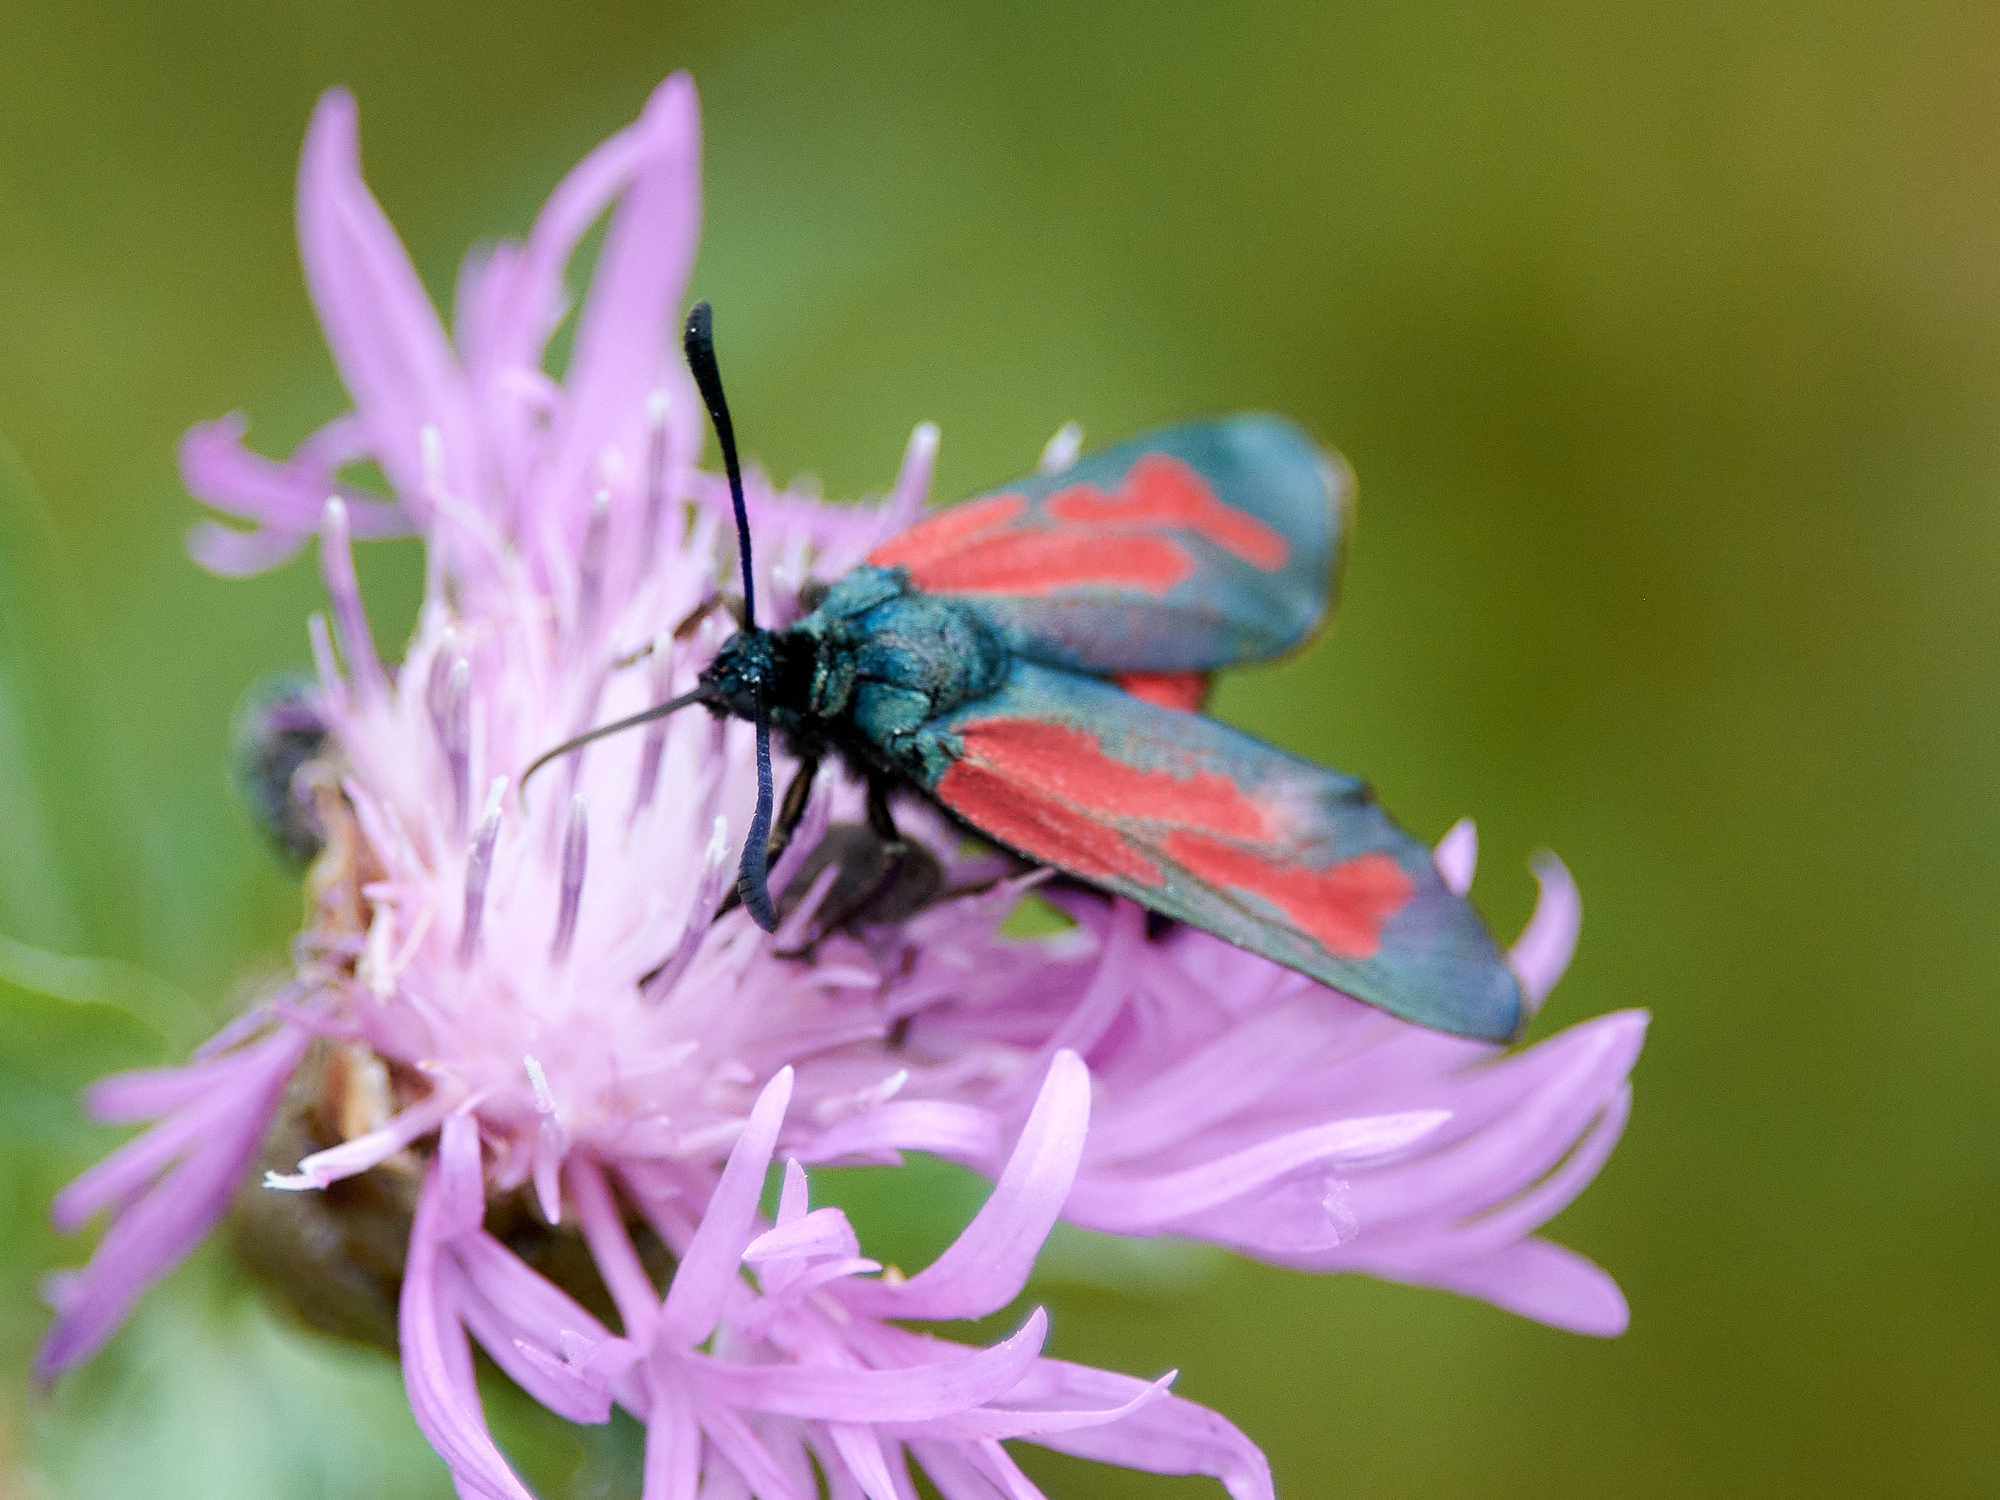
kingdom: Animalia
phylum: Arthropoda
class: Insecta
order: Lepidoptera
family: Zygaenidae
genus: Zygaena
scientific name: Zygaena minos
